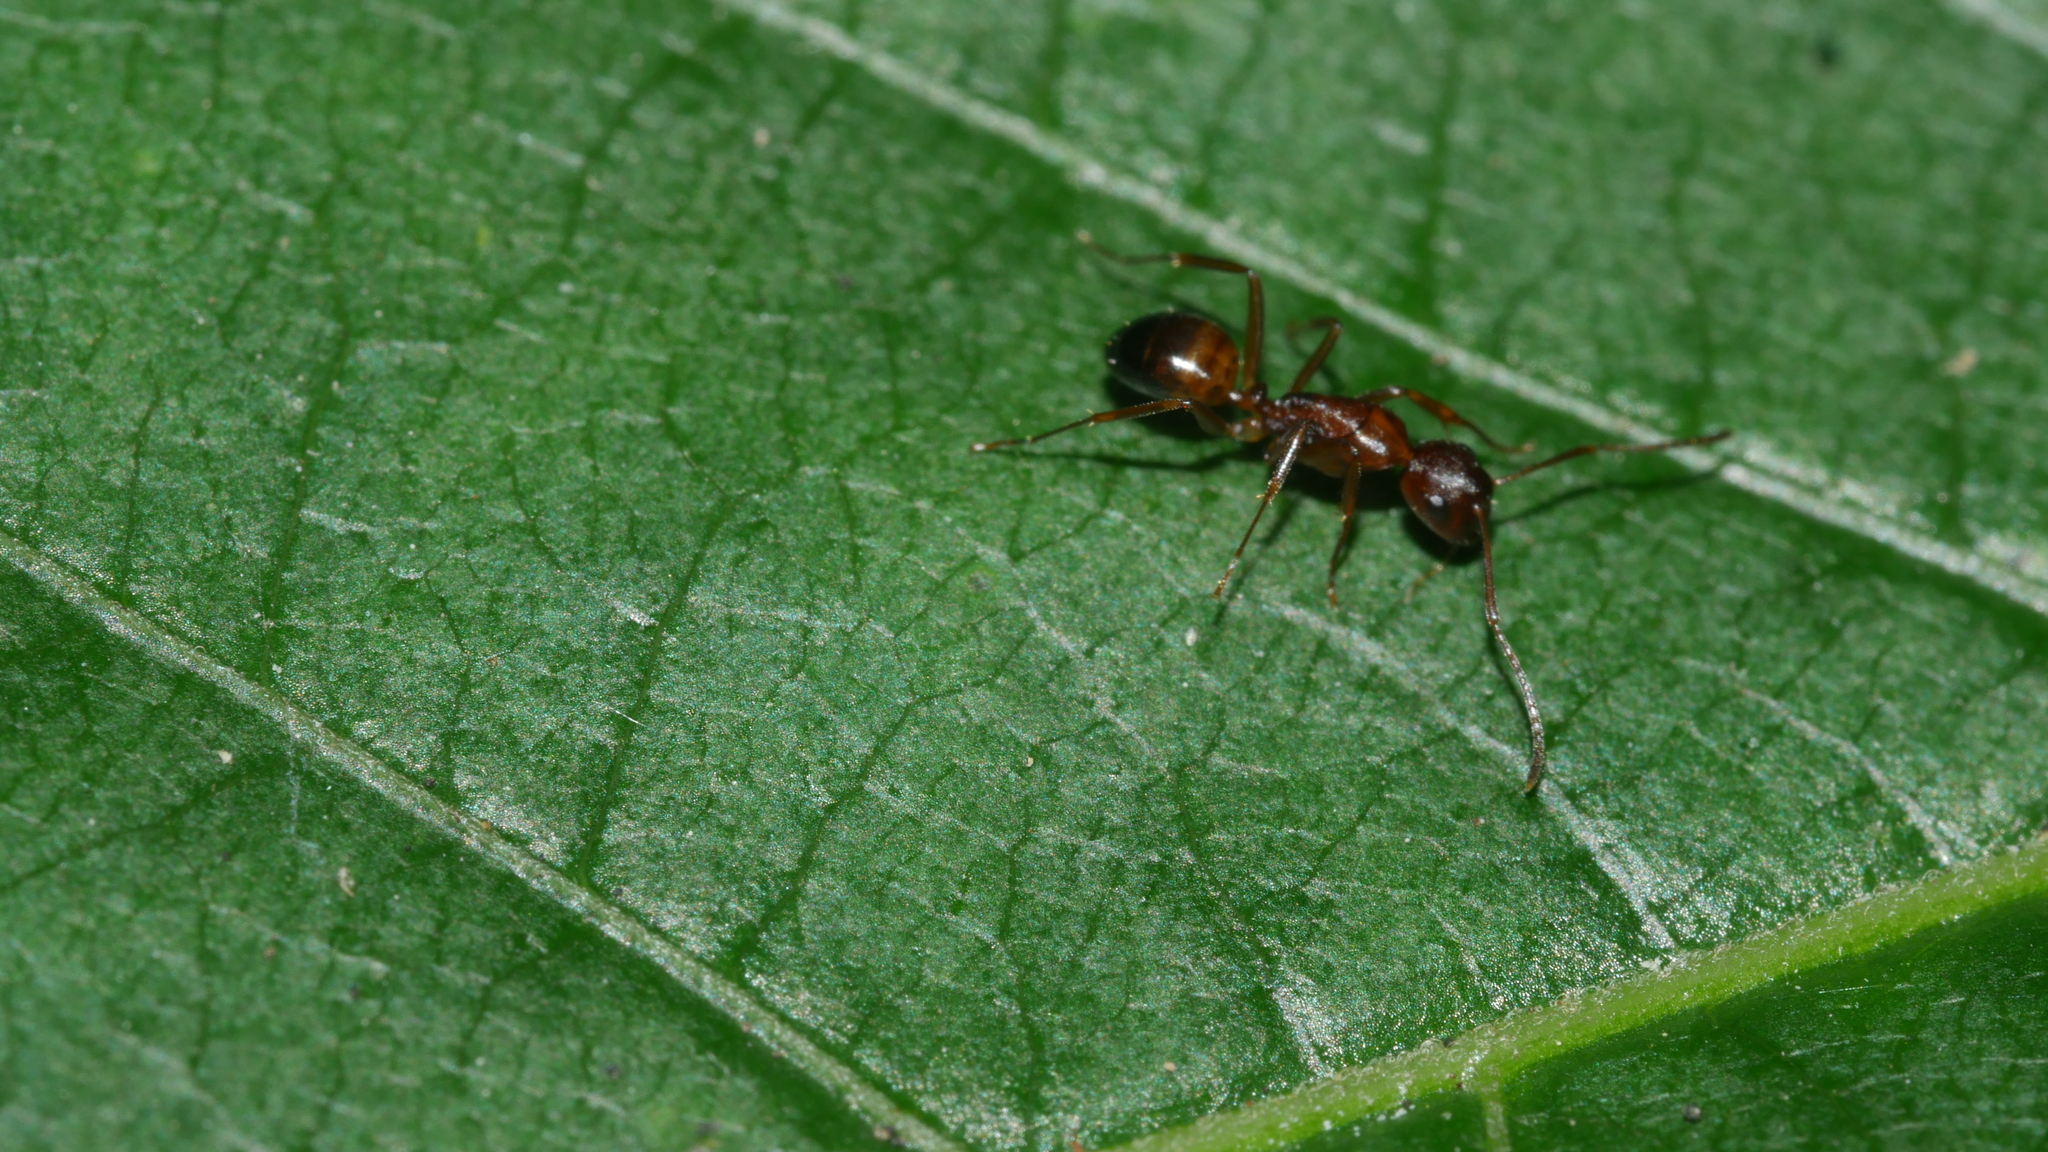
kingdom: Animalia
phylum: Arthropoda
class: Insecta
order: Hymenoptera
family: Formicidae
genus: Camponotus
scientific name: Camponotus subbarbatus
